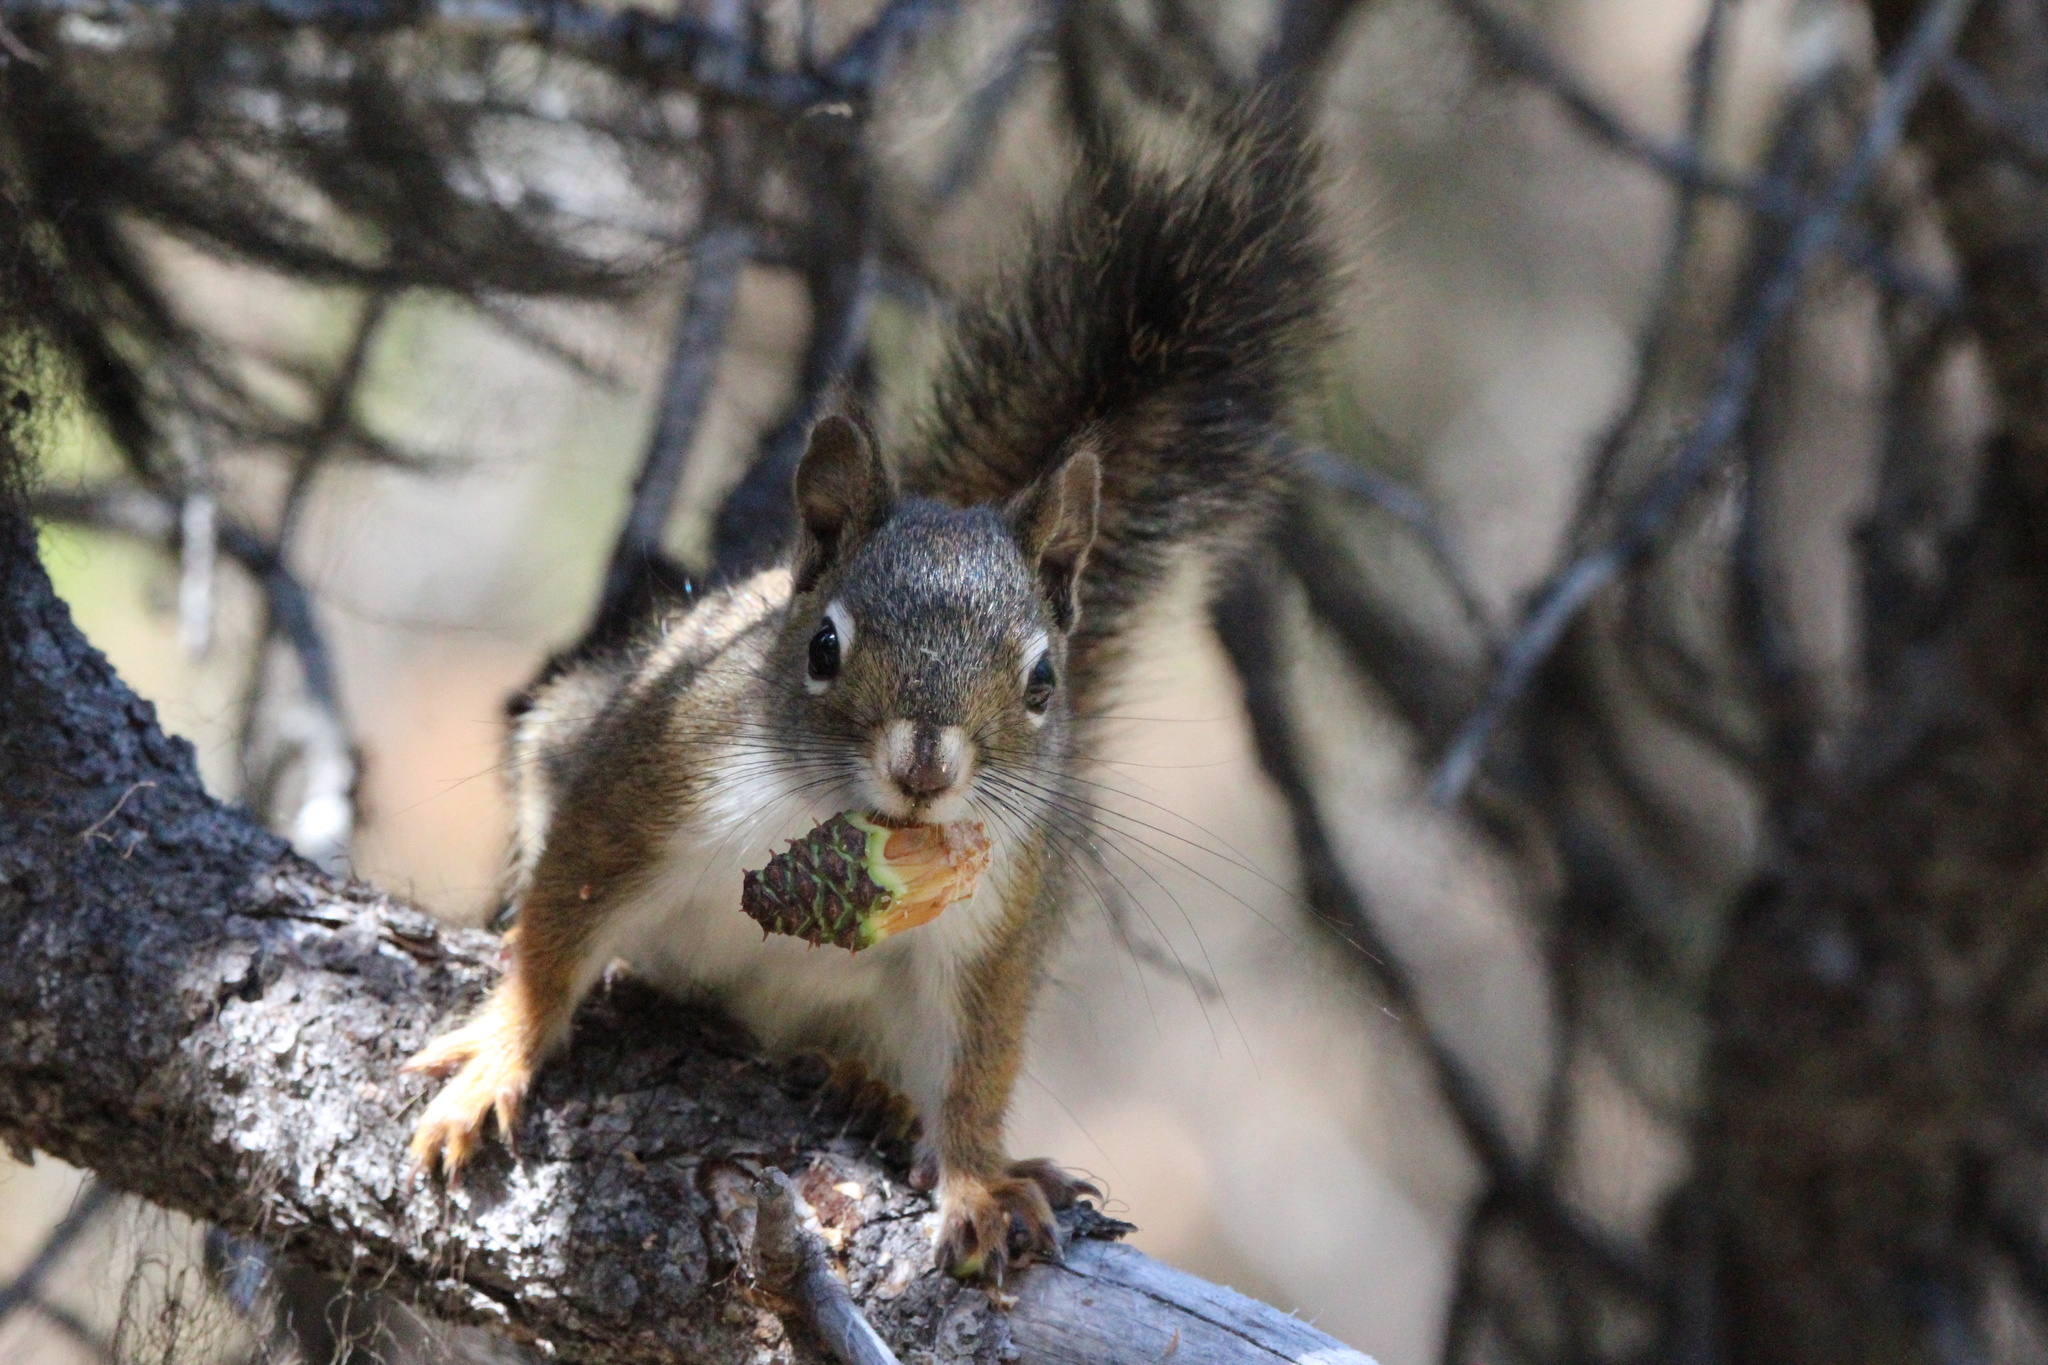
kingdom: Animalia
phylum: Chordata
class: Mammalia
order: Rodentia
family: Sciuridae
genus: Tamiasciurus
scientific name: Tamiasciurus hudsonicus
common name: Red squirrel
